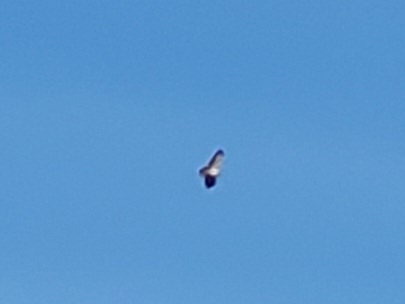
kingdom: Animalia
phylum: Chordata
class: Aves
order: Accipitriformes
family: Accipitridae
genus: Buteo
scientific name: Buteo buteo
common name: Common buzzard
